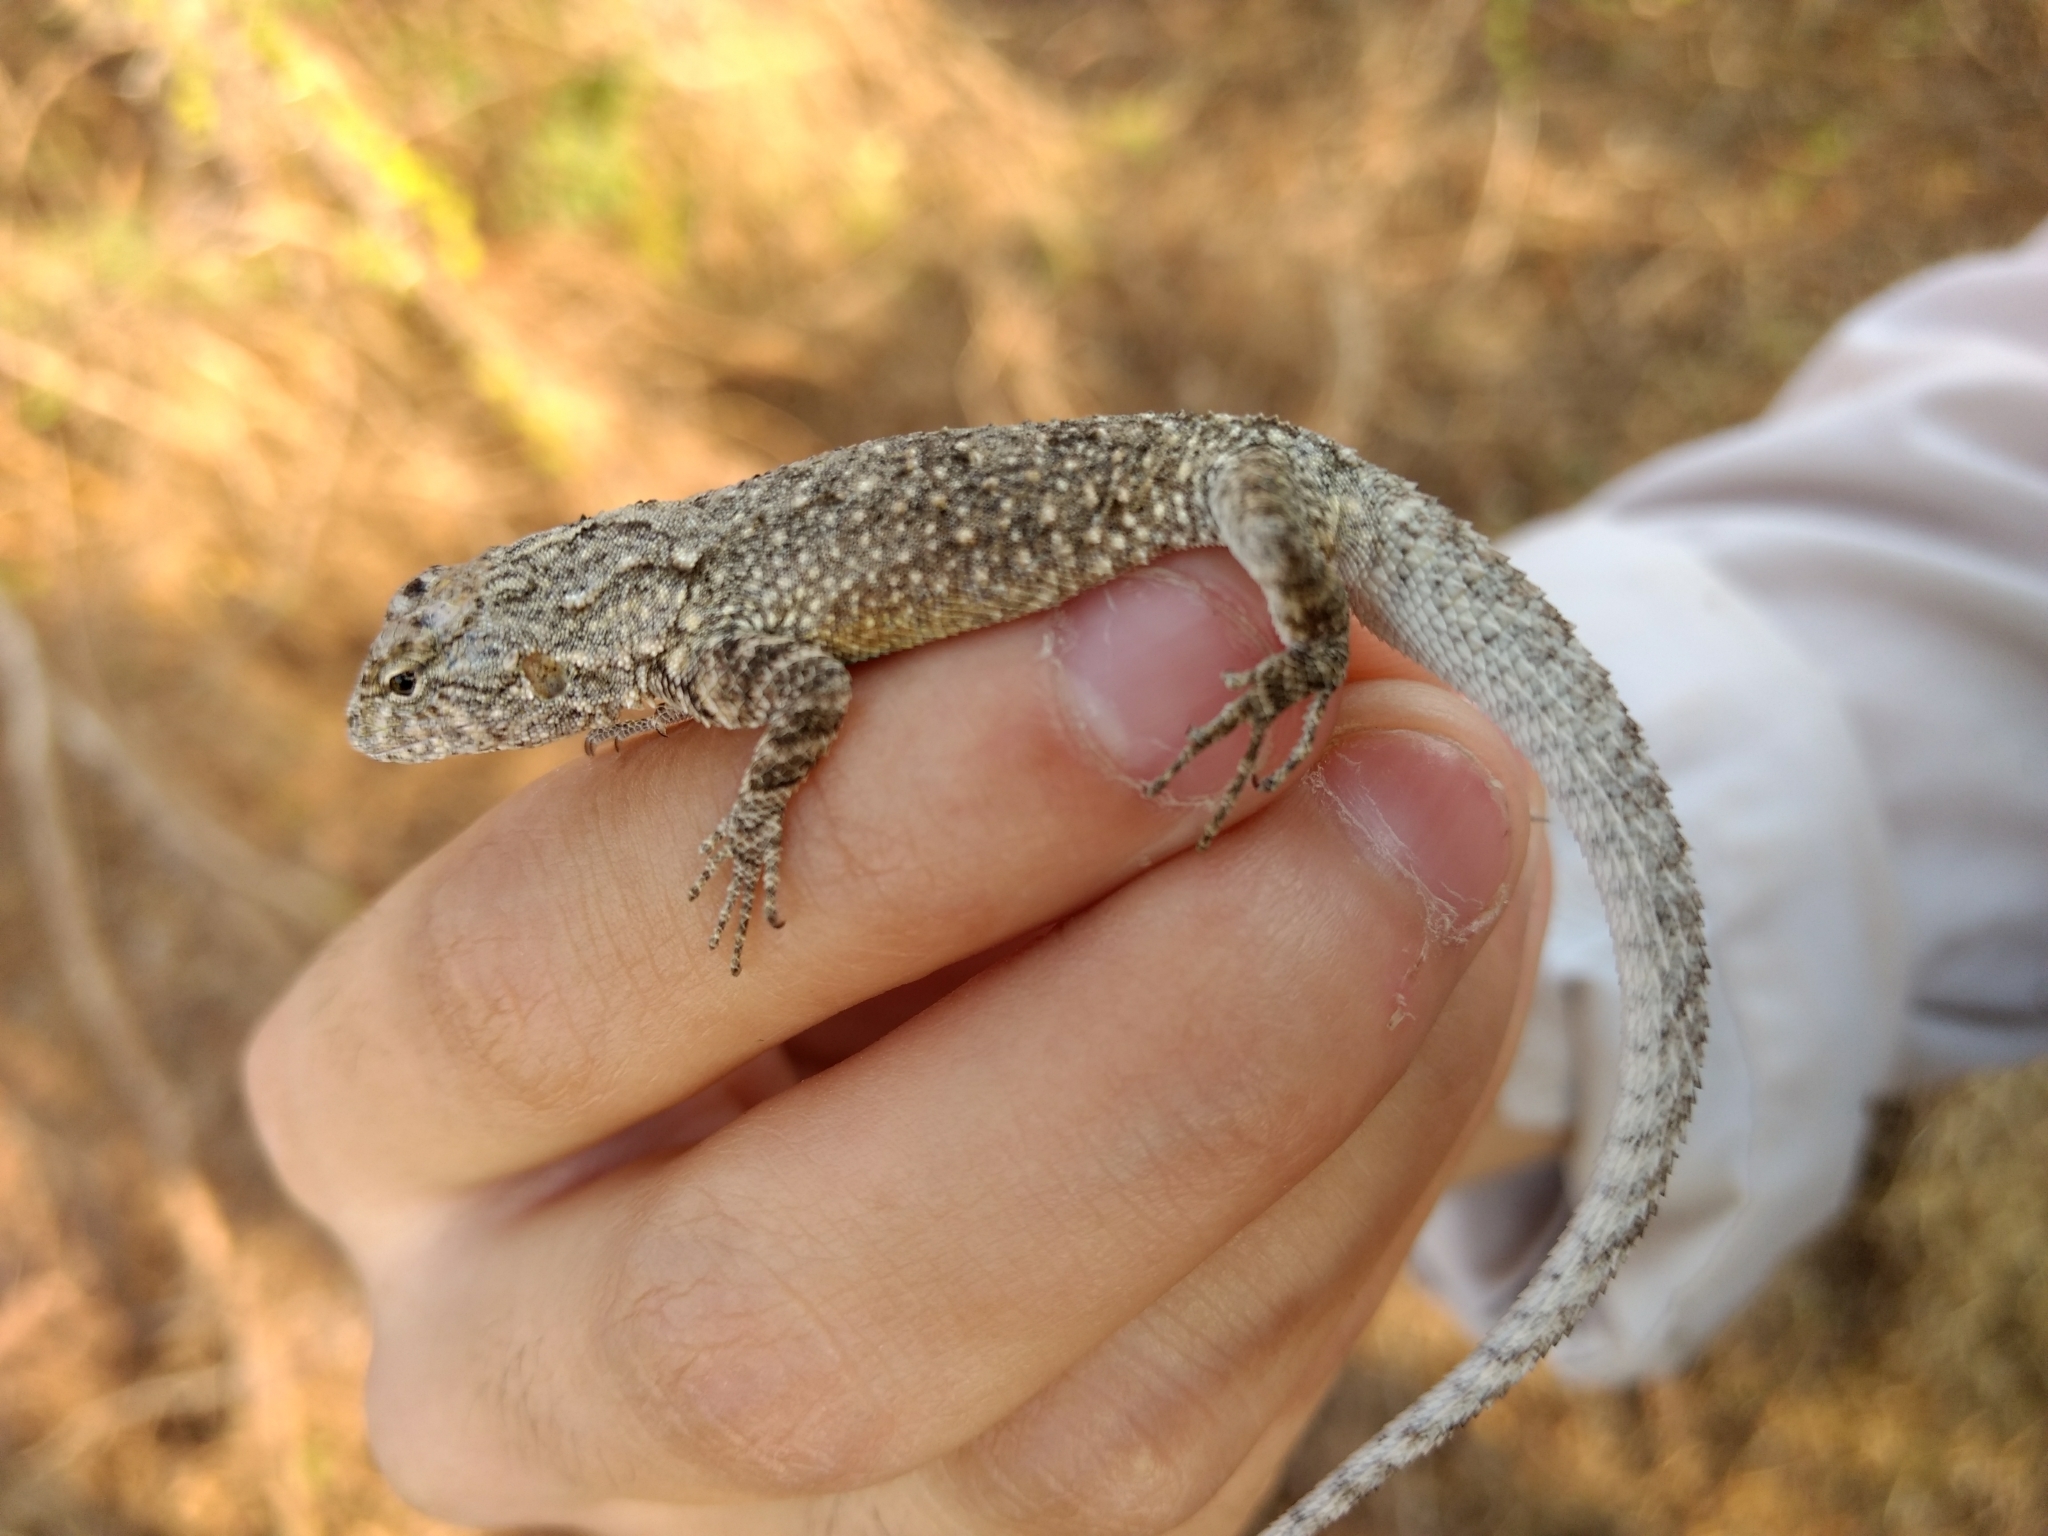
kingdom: Animalia
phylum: Chordata
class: Squamata
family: Phrynosomatidae
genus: Urosaurus
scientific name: Urosaurus bicarinatus
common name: Tropical tree lizard
